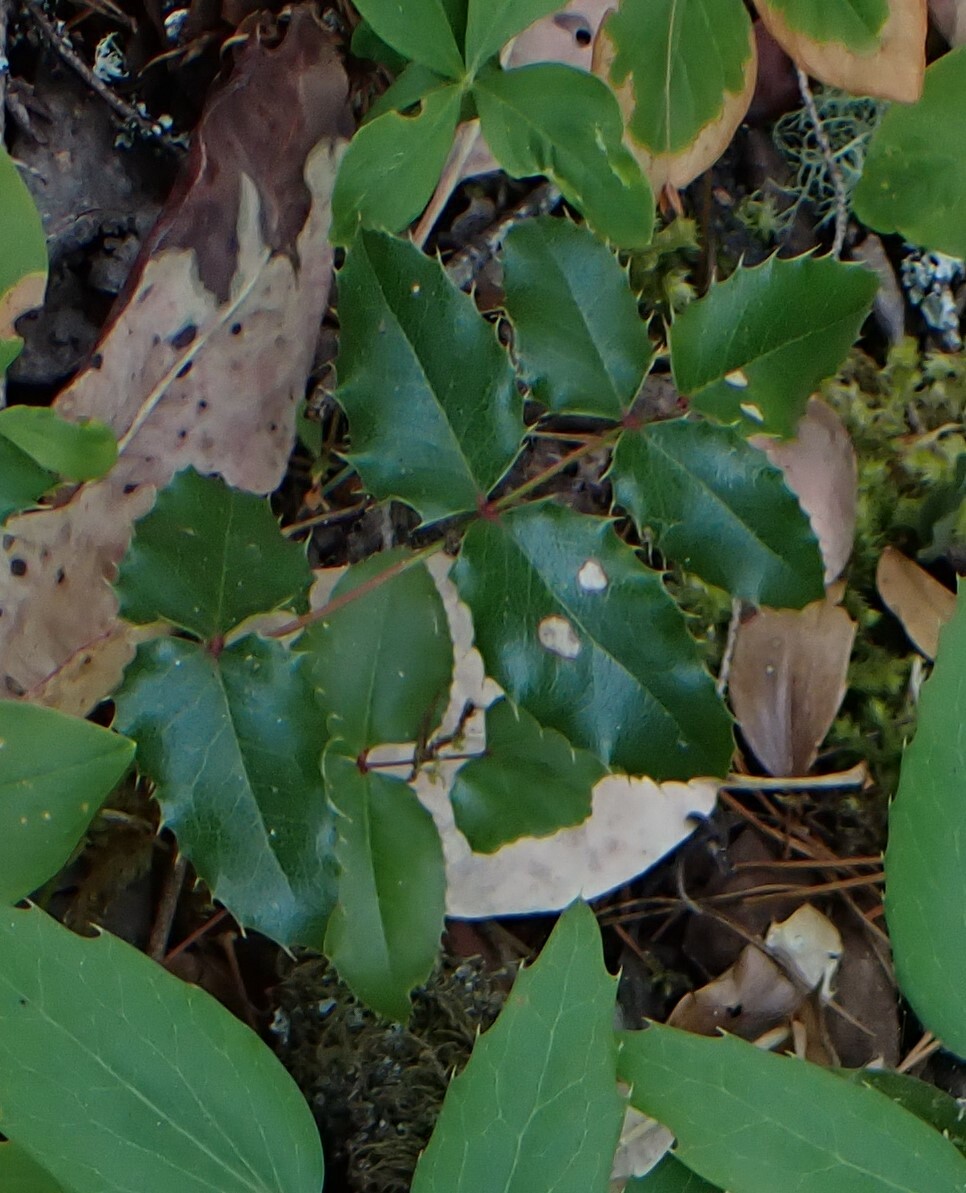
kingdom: Plantae
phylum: Tracheophyta
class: Magnoliopsida
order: Ranunculales
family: Berberidaceae
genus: Mahonia
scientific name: Mahonia aquifolium
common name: Oregon-grape
